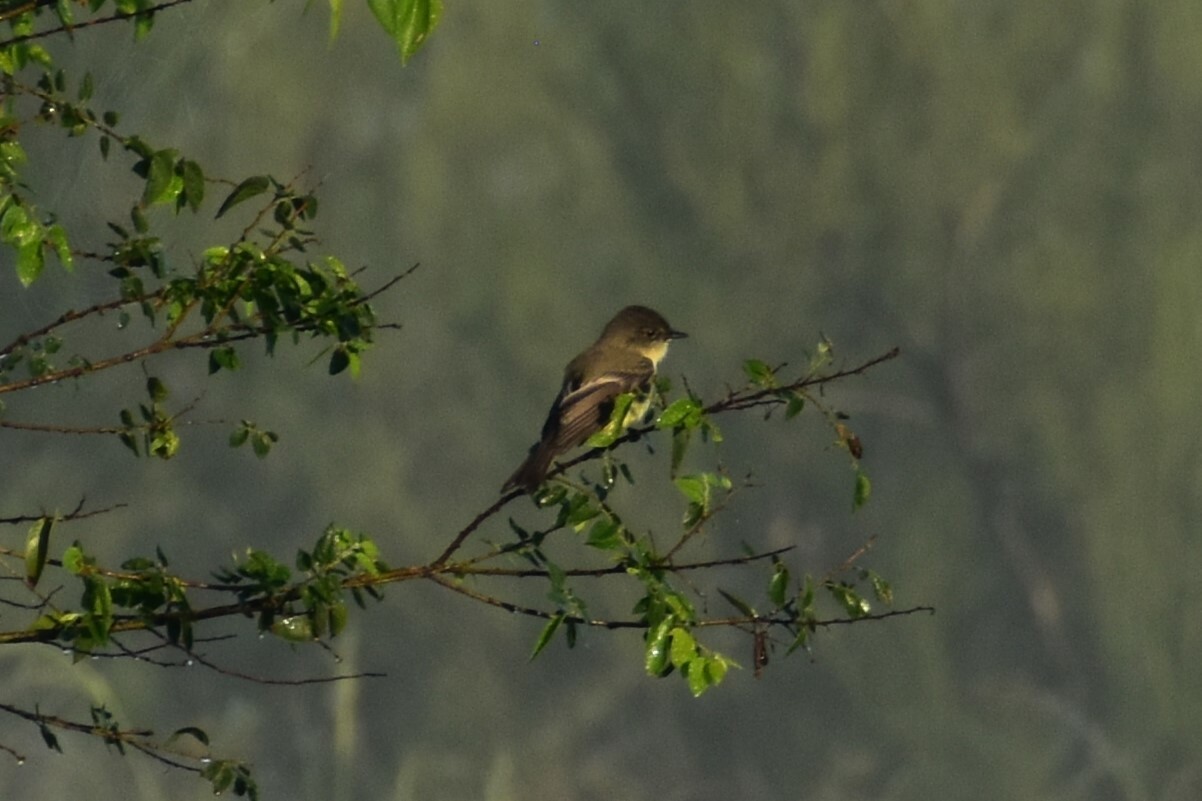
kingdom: Animalia
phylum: Chordata
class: Aves
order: Passeriformes
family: Tyrannidae
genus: Sayornis
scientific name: Sayornis phoebe
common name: Eastern phoebe
